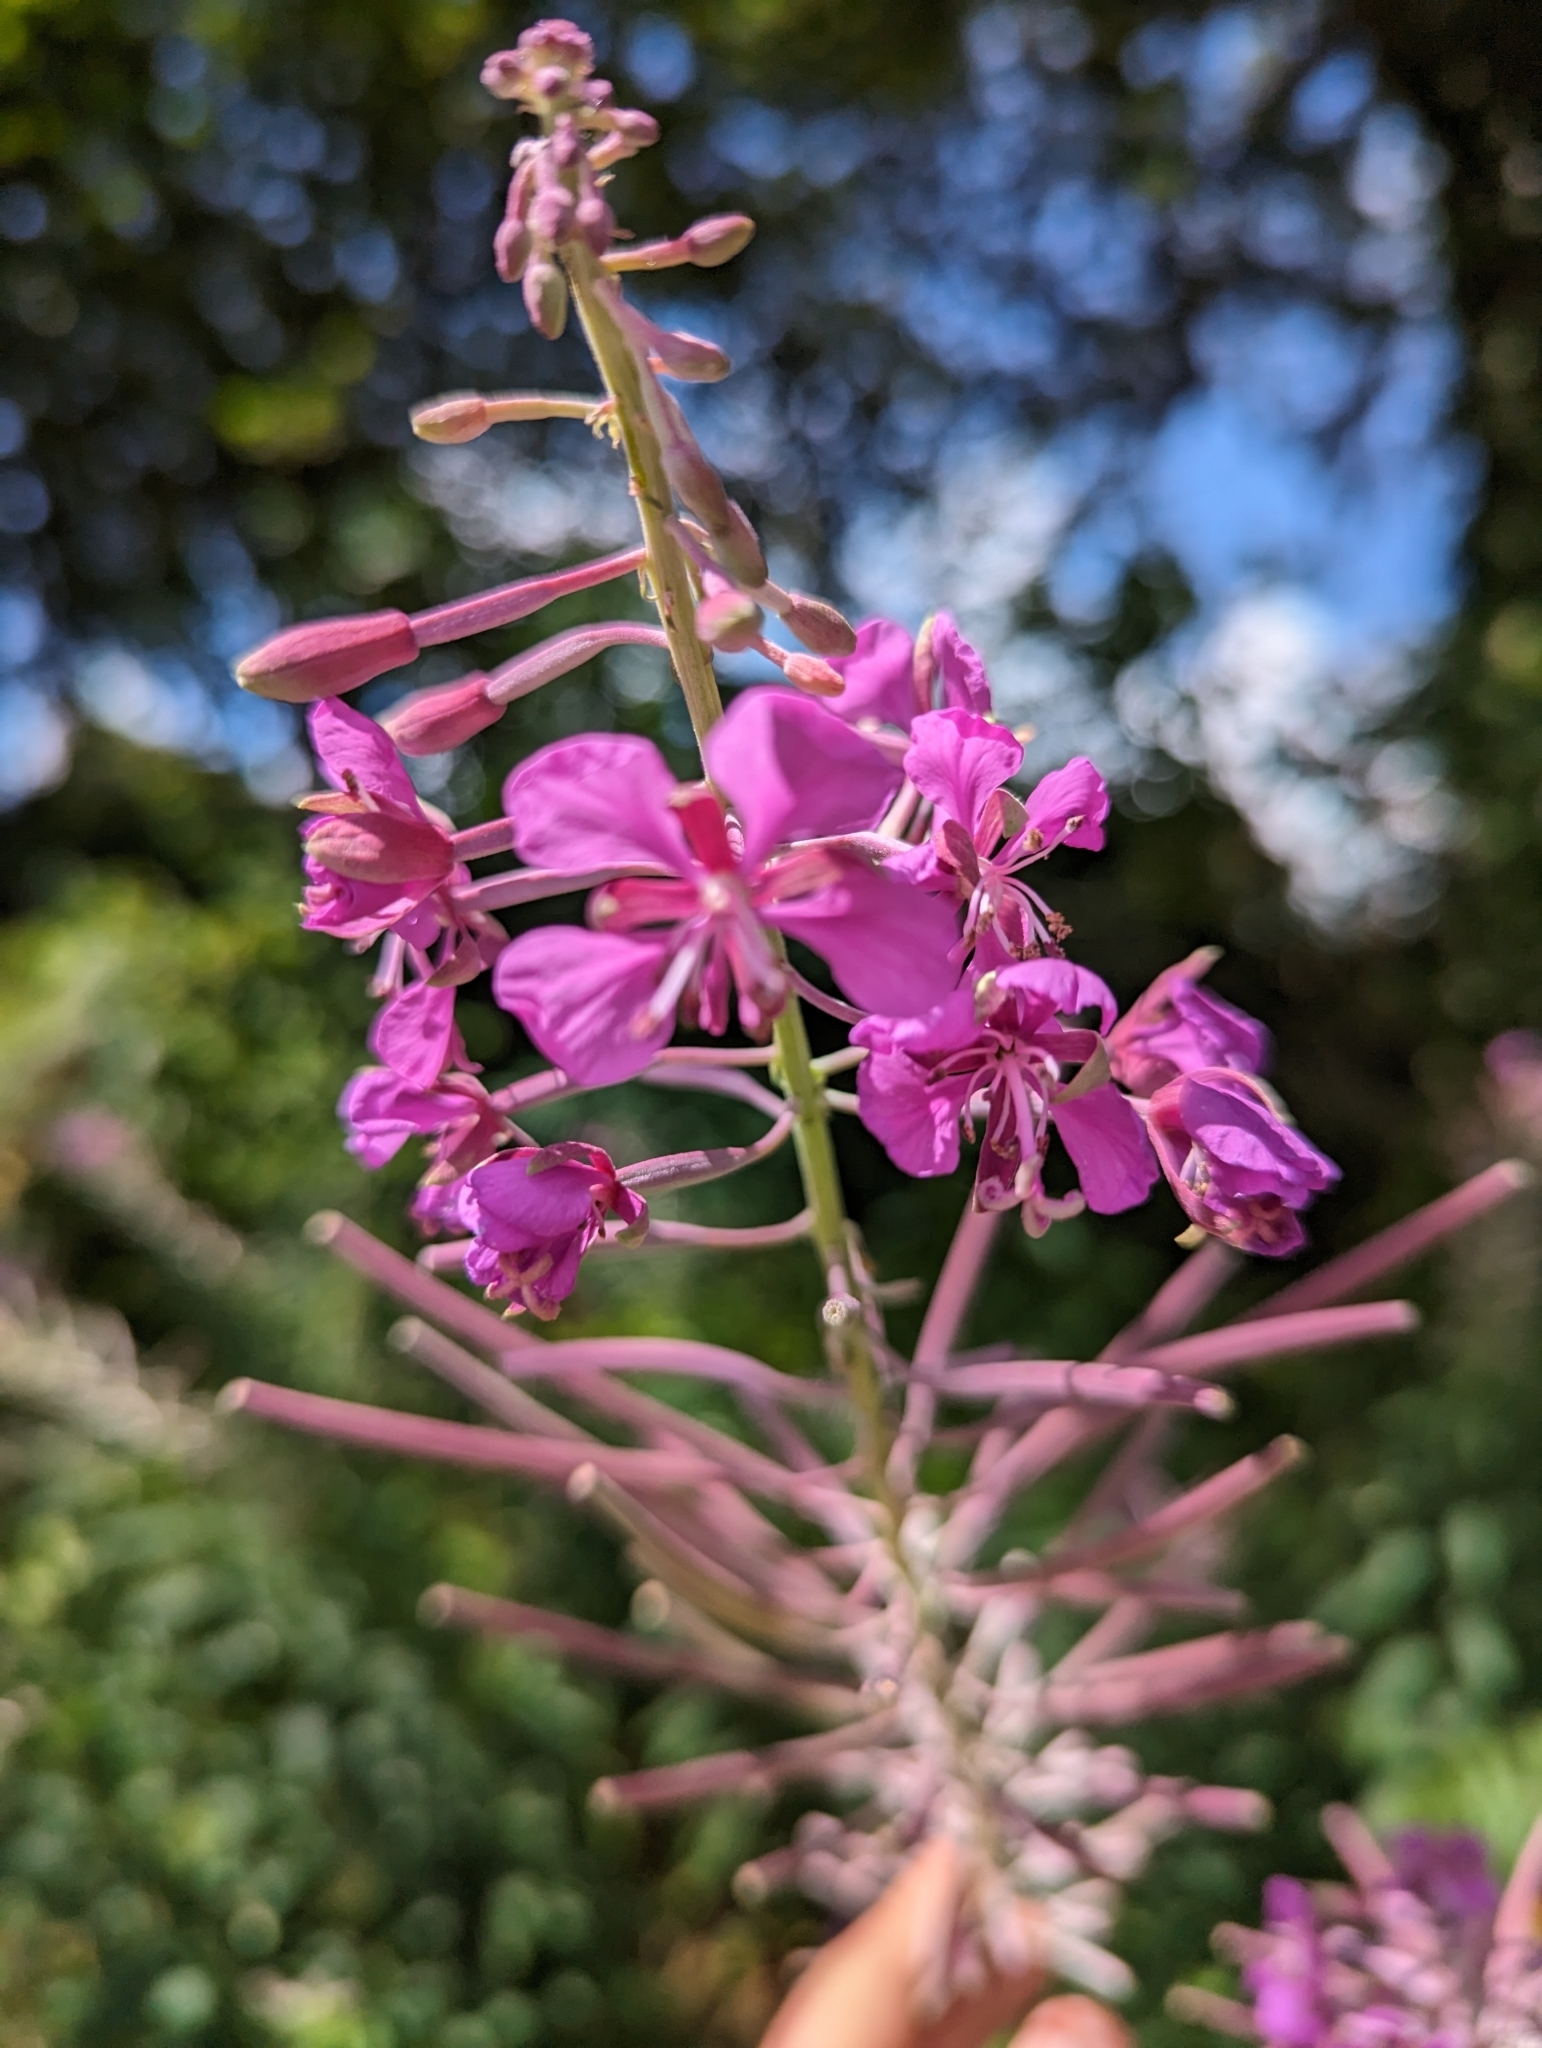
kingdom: Plantae
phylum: Tracheophyta
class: Magnoliopsida
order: Myrtales
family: Onagraceae
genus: Chamaenerion
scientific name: Chamaenerion angustifolium
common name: Fireweed
